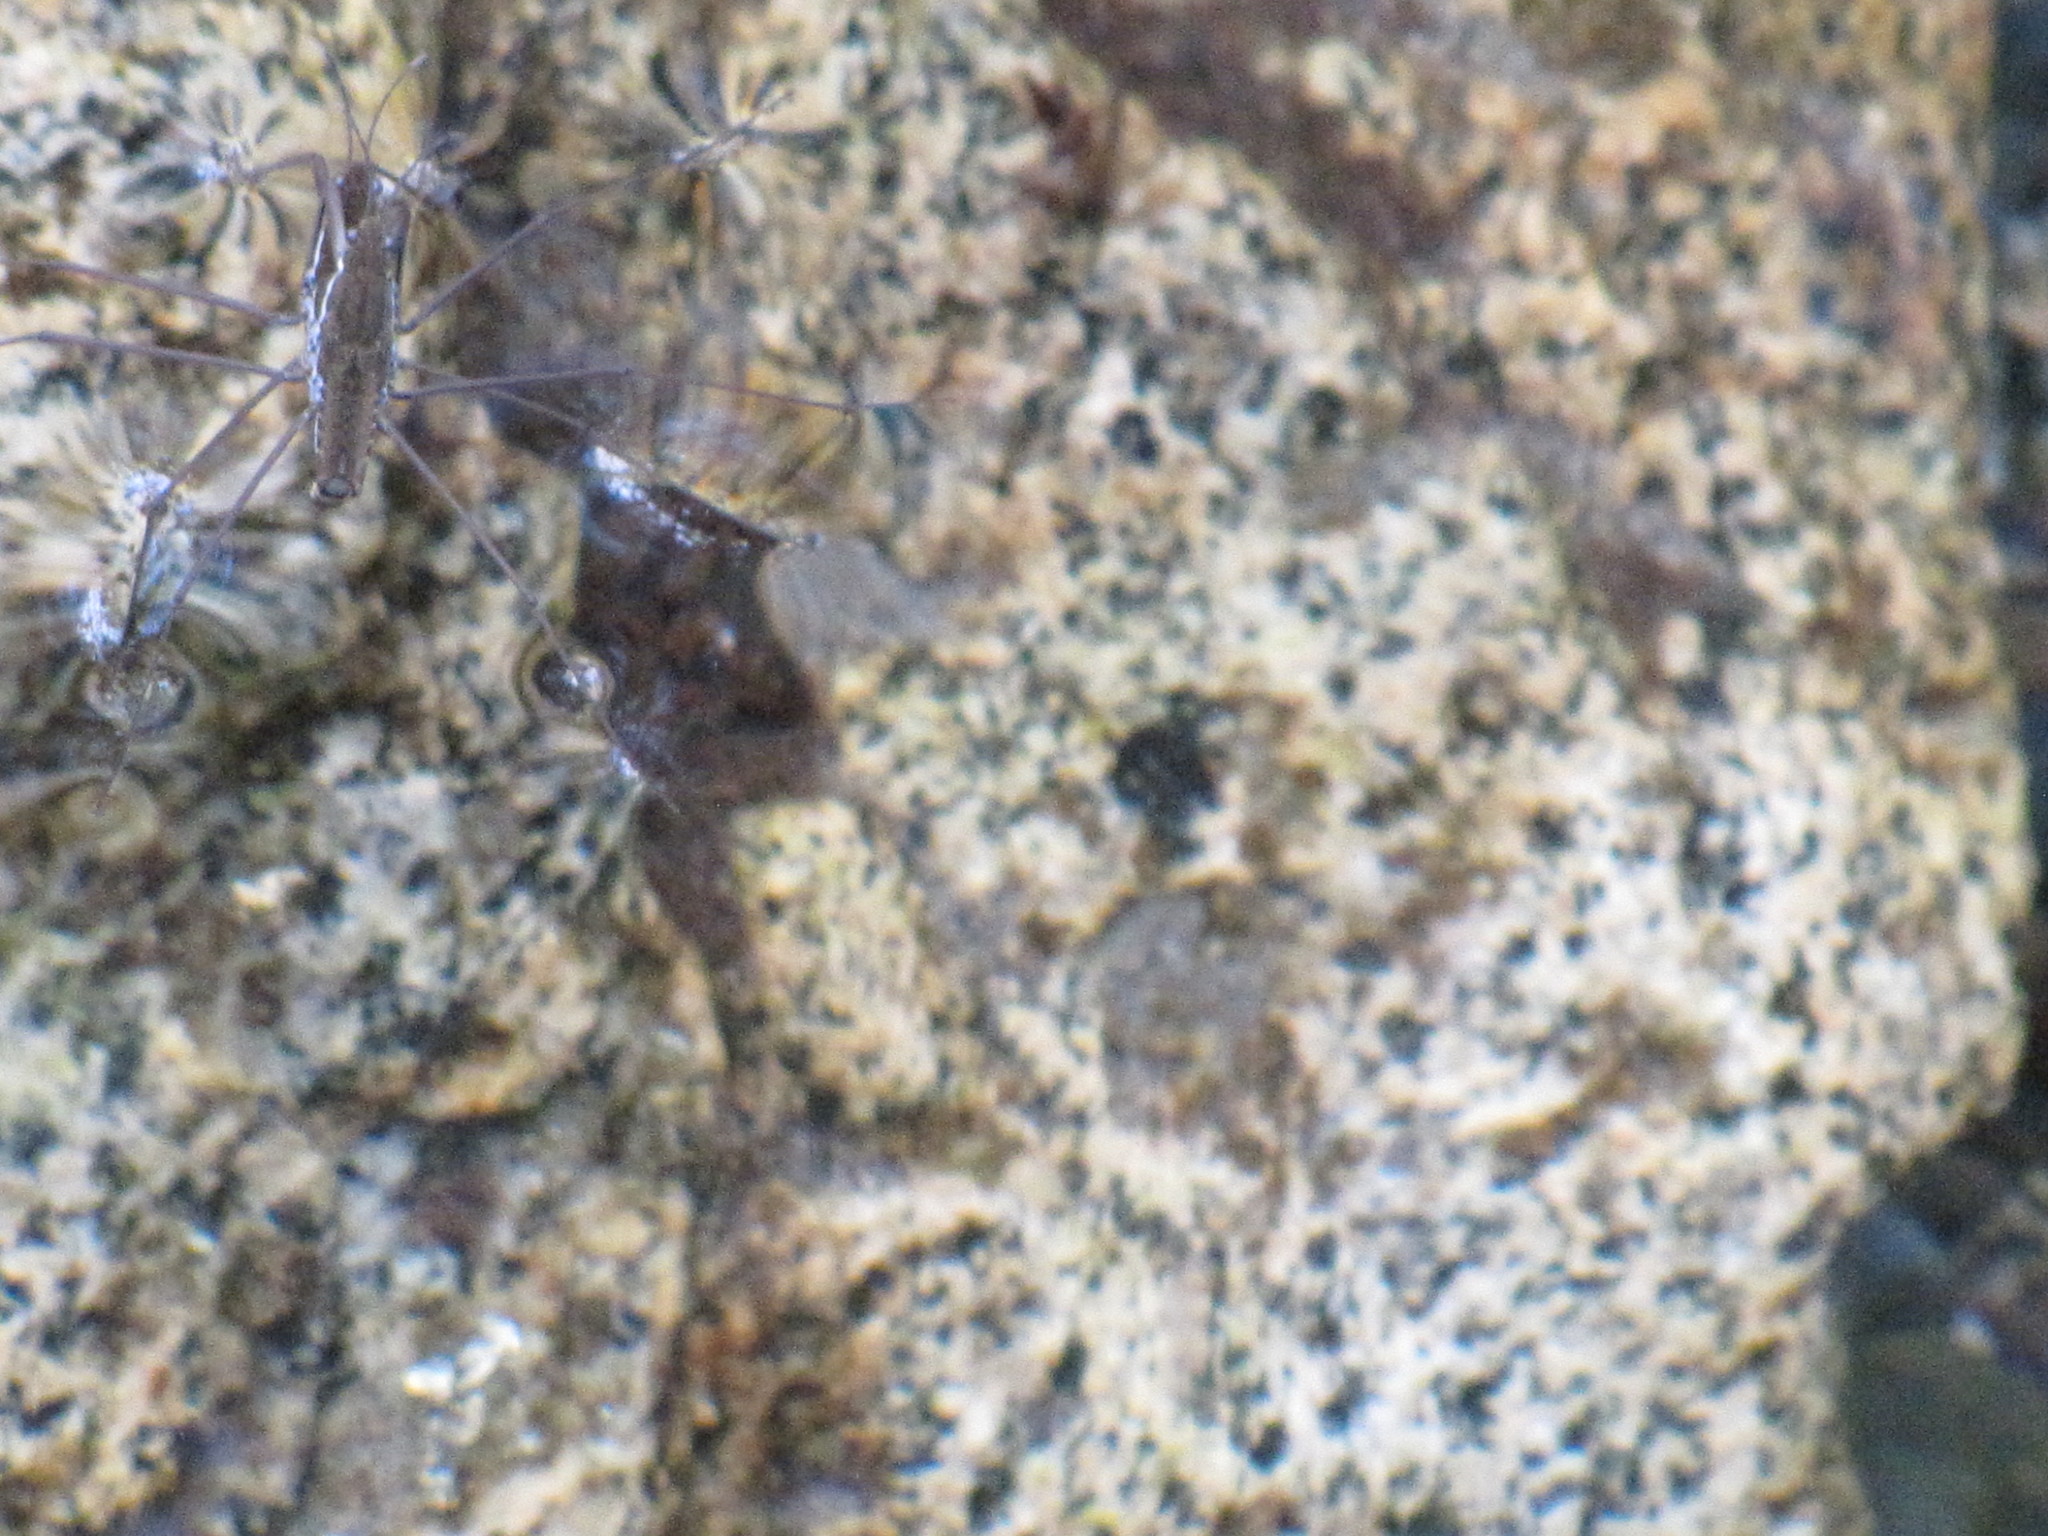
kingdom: Animalia
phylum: Arthropoda
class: Insecta
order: Hemiptera
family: Gerridae
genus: Aquarius
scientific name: Aquarius remigis
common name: Common water strider
